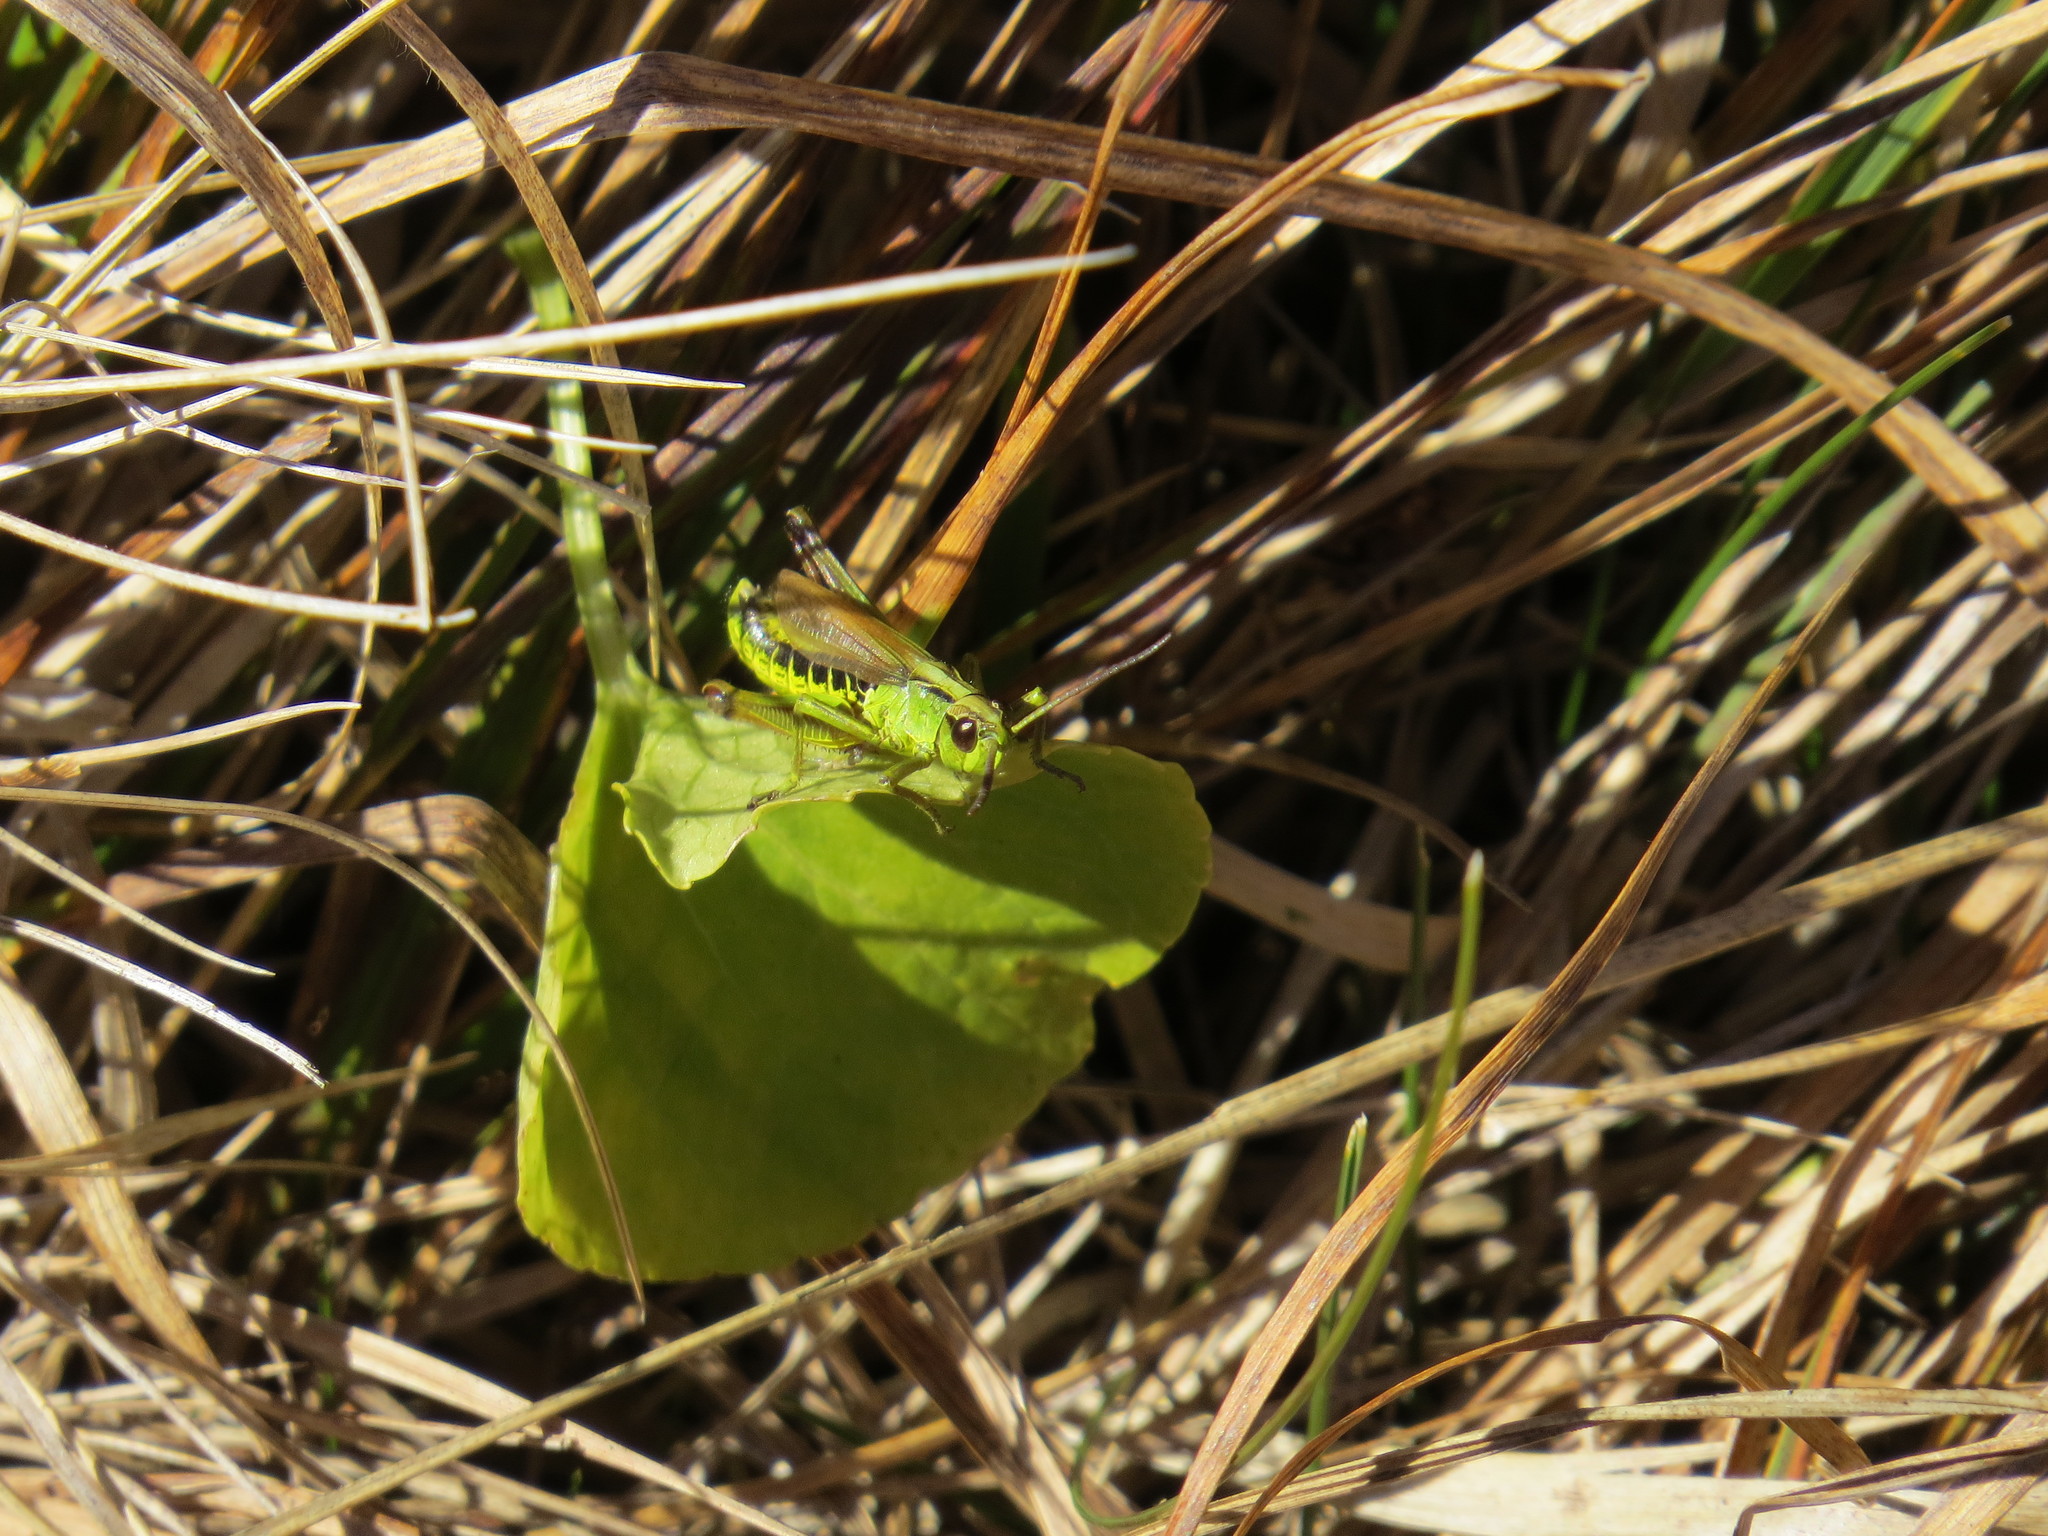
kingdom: Animalia
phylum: Arthropoda
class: Insecta
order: Orthoptera
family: Acrididae
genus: Pseudochorthippus
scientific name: Pseudochorthippus montanus
